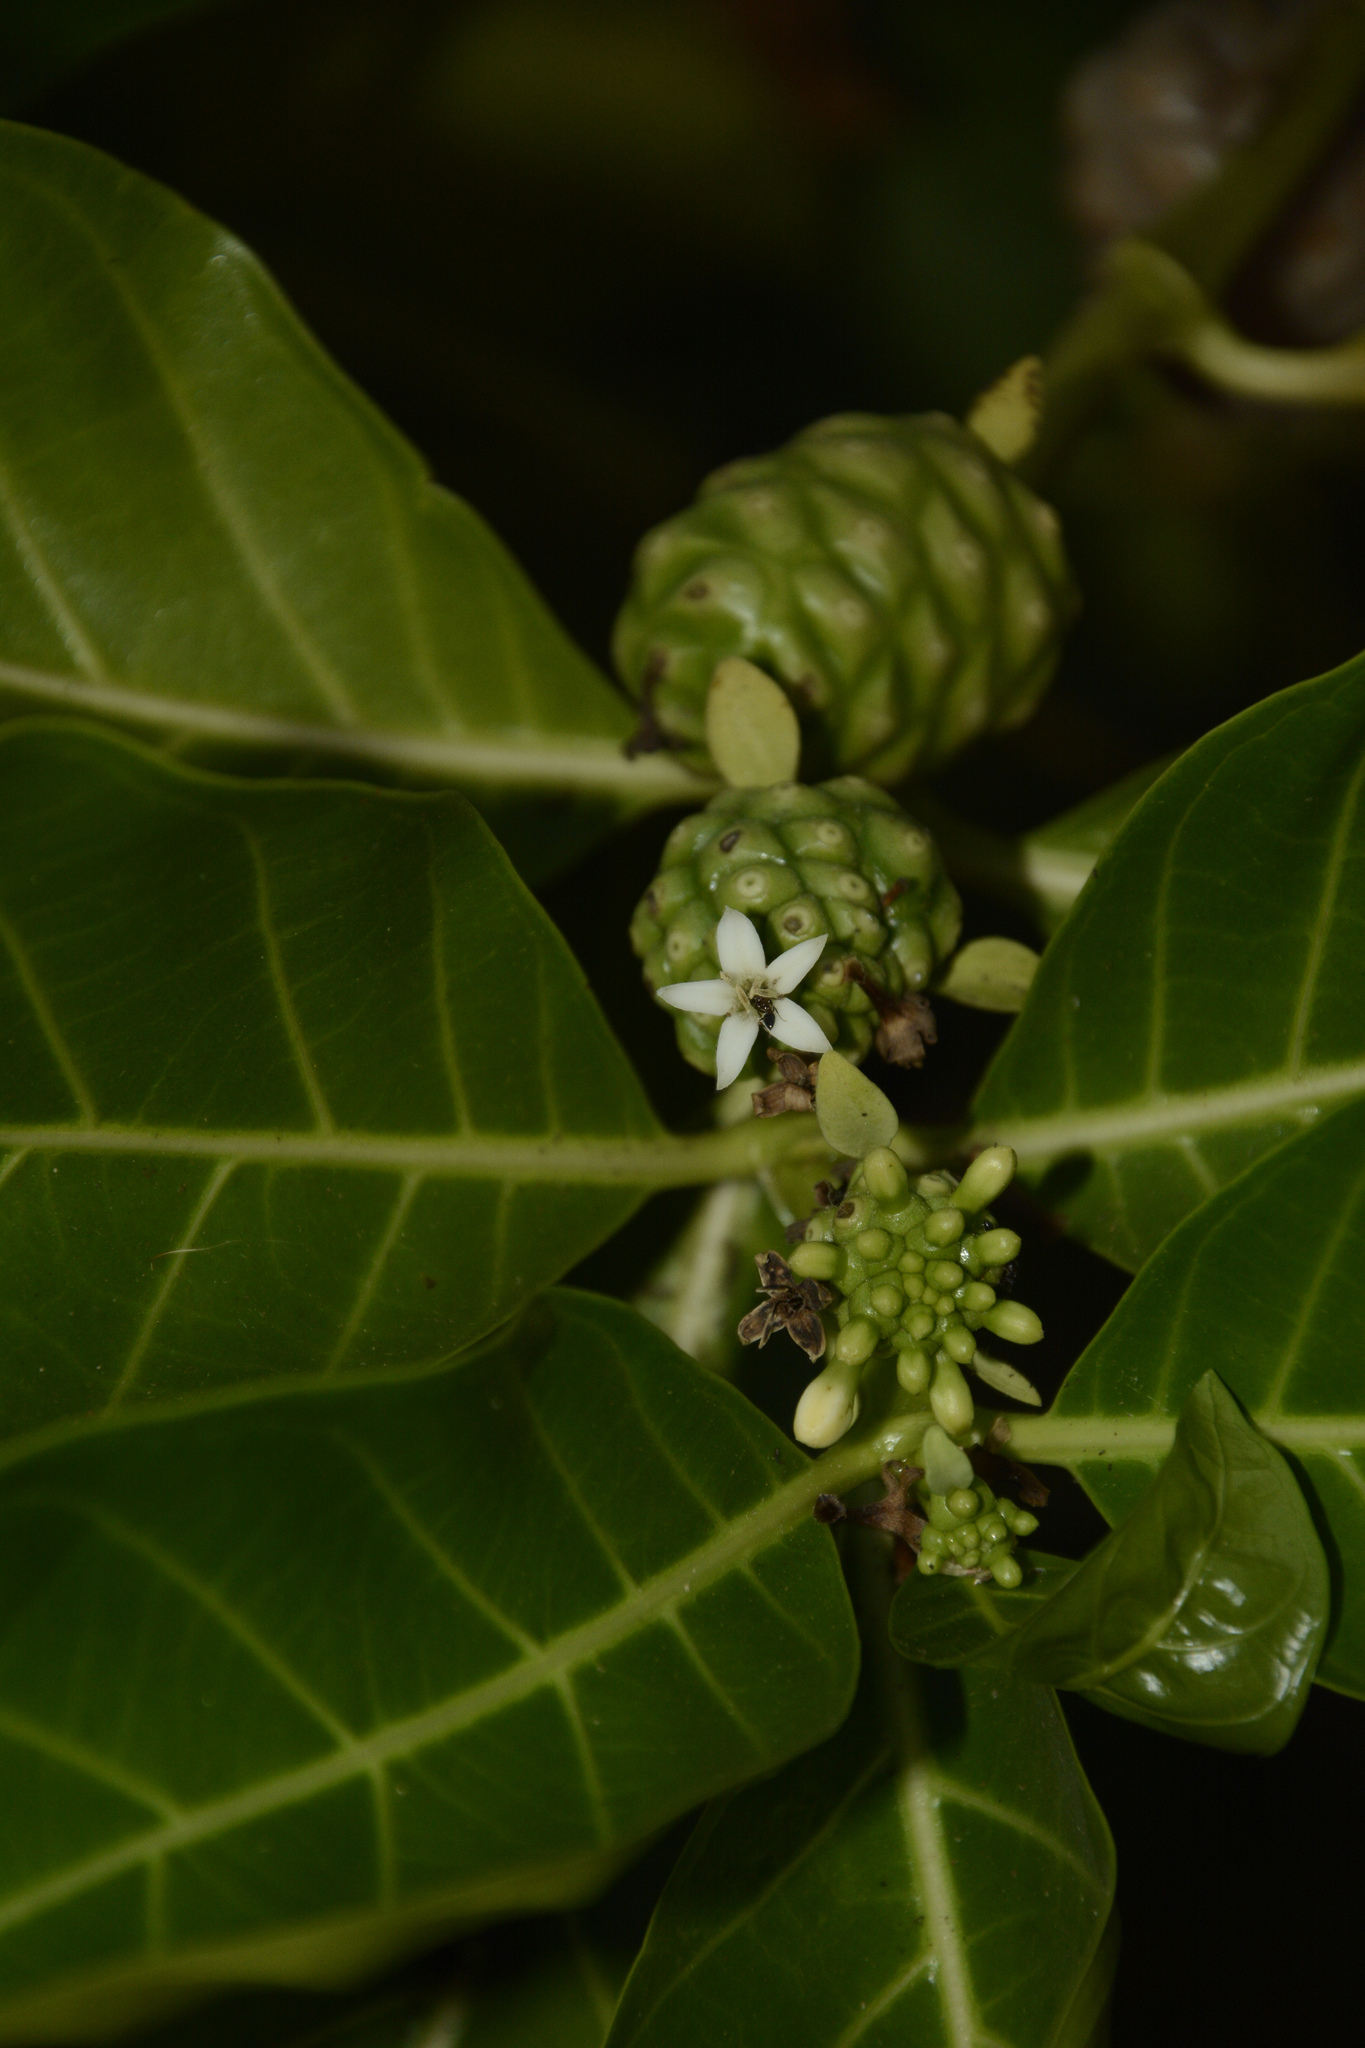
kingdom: Plantae
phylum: Tracheophyta
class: Magnoliopsida
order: Gentianales
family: Rubiaceae
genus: Morinda
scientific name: Morinda citrifolia
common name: Indian-mulberry
